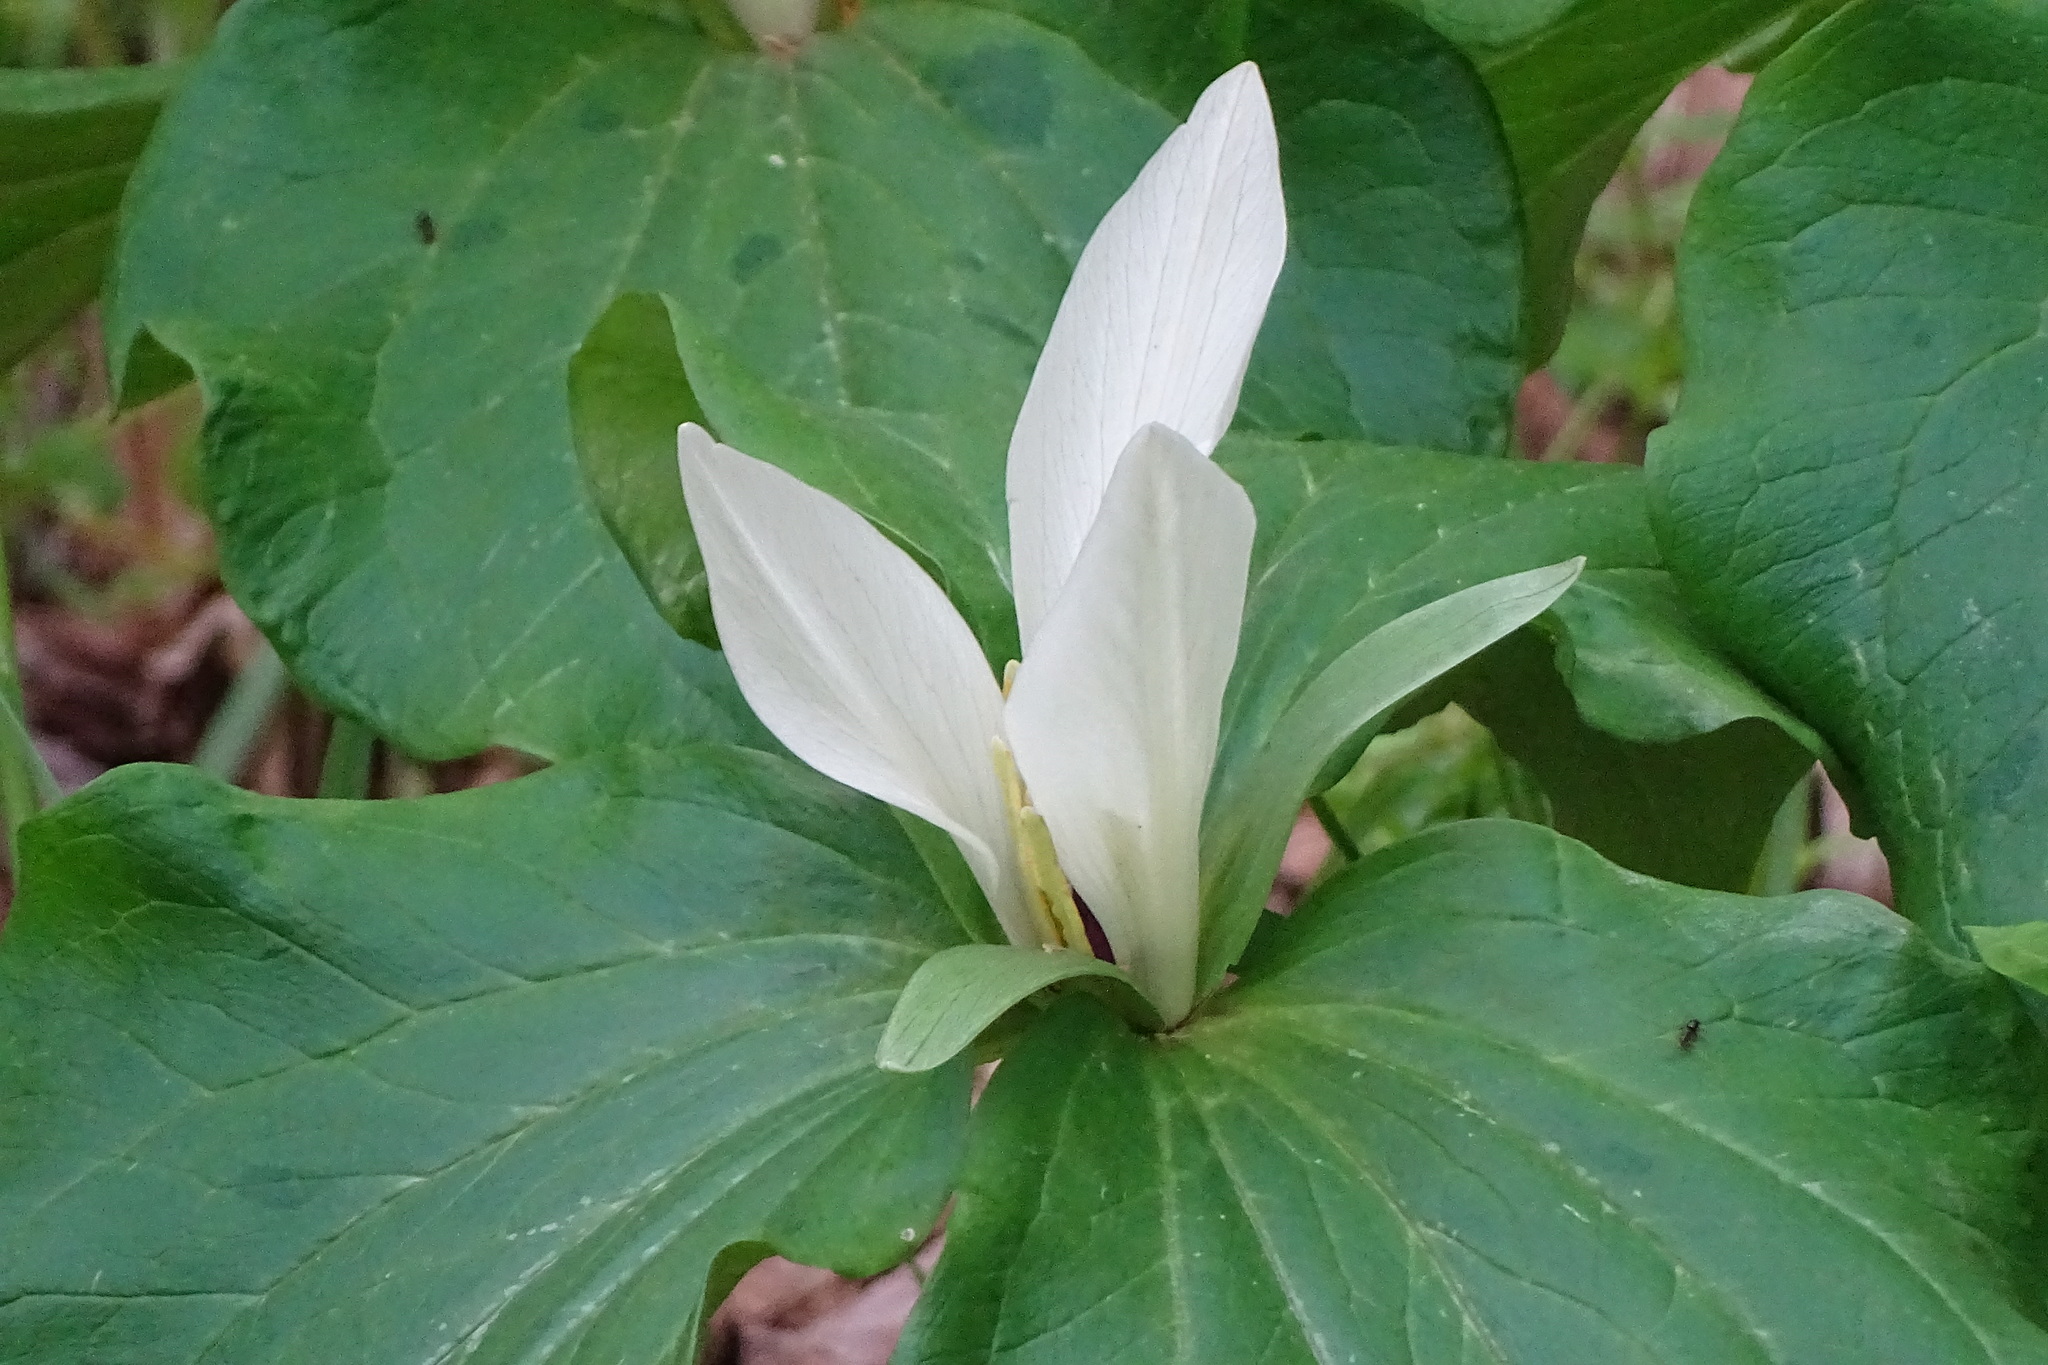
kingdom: Plantae
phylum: Tracheophyta
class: Liliopsida
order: Liliales
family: Melanthiaceae
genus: Trillium
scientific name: Trillium albidum
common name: Freeman's trillium
